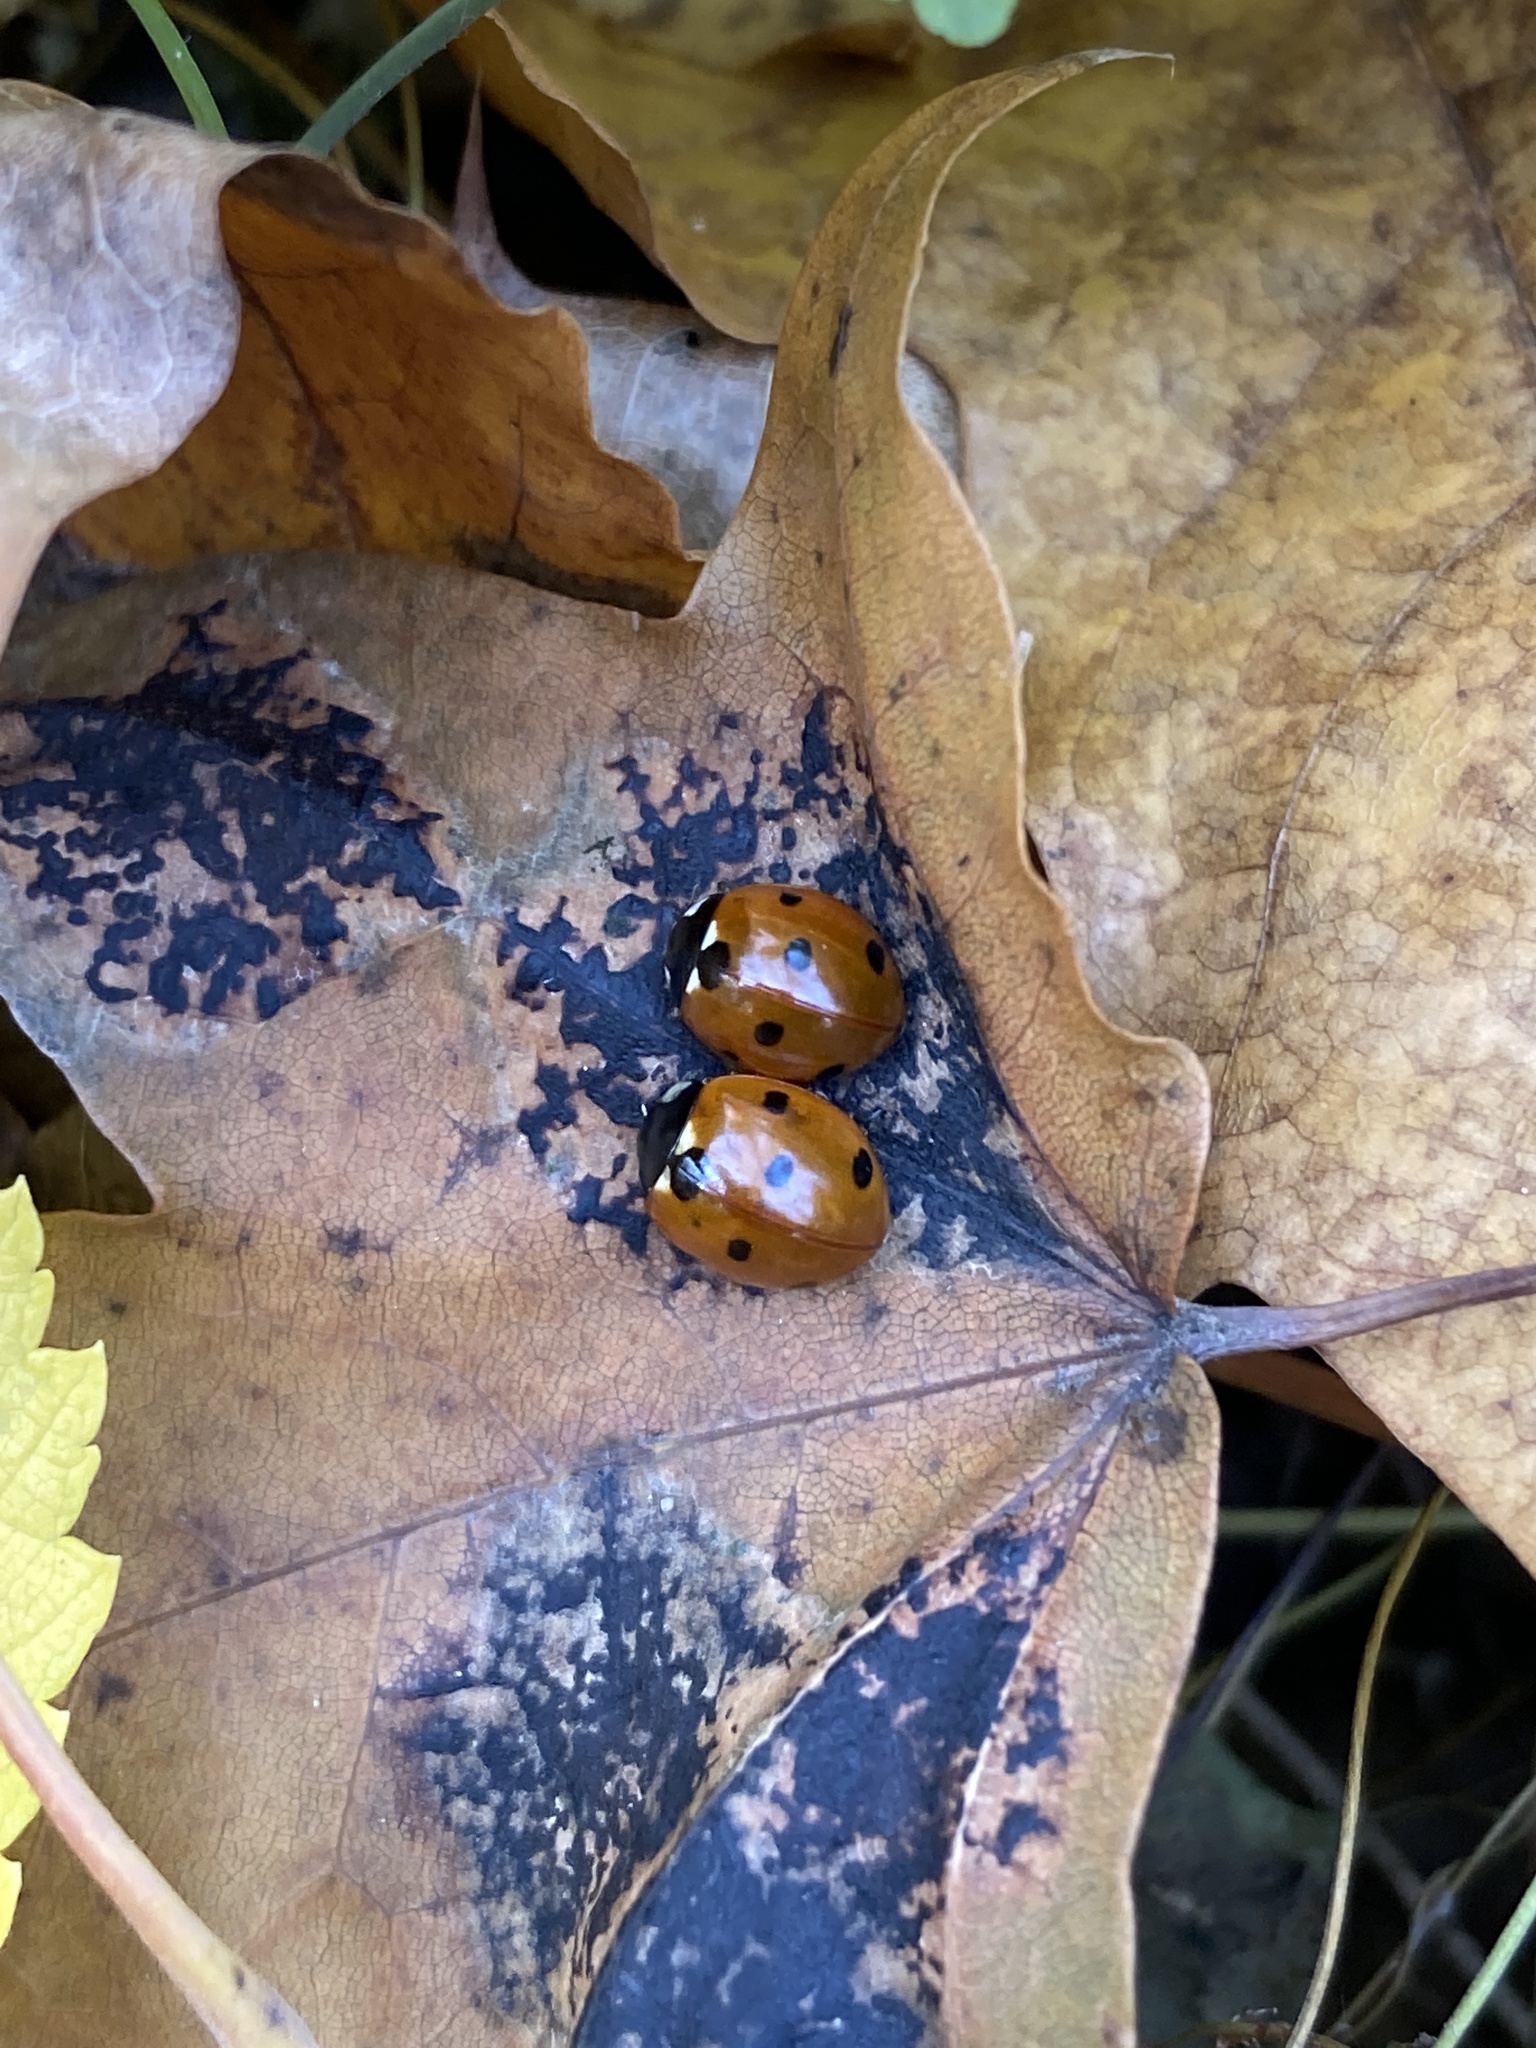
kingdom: Animalia
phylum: Arthropoda
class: Insecta
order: Coleoptera
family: Coccinellidae
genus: Coccinella
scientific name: Coccinella septempunctata
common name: Sevenspotted lady beetle
